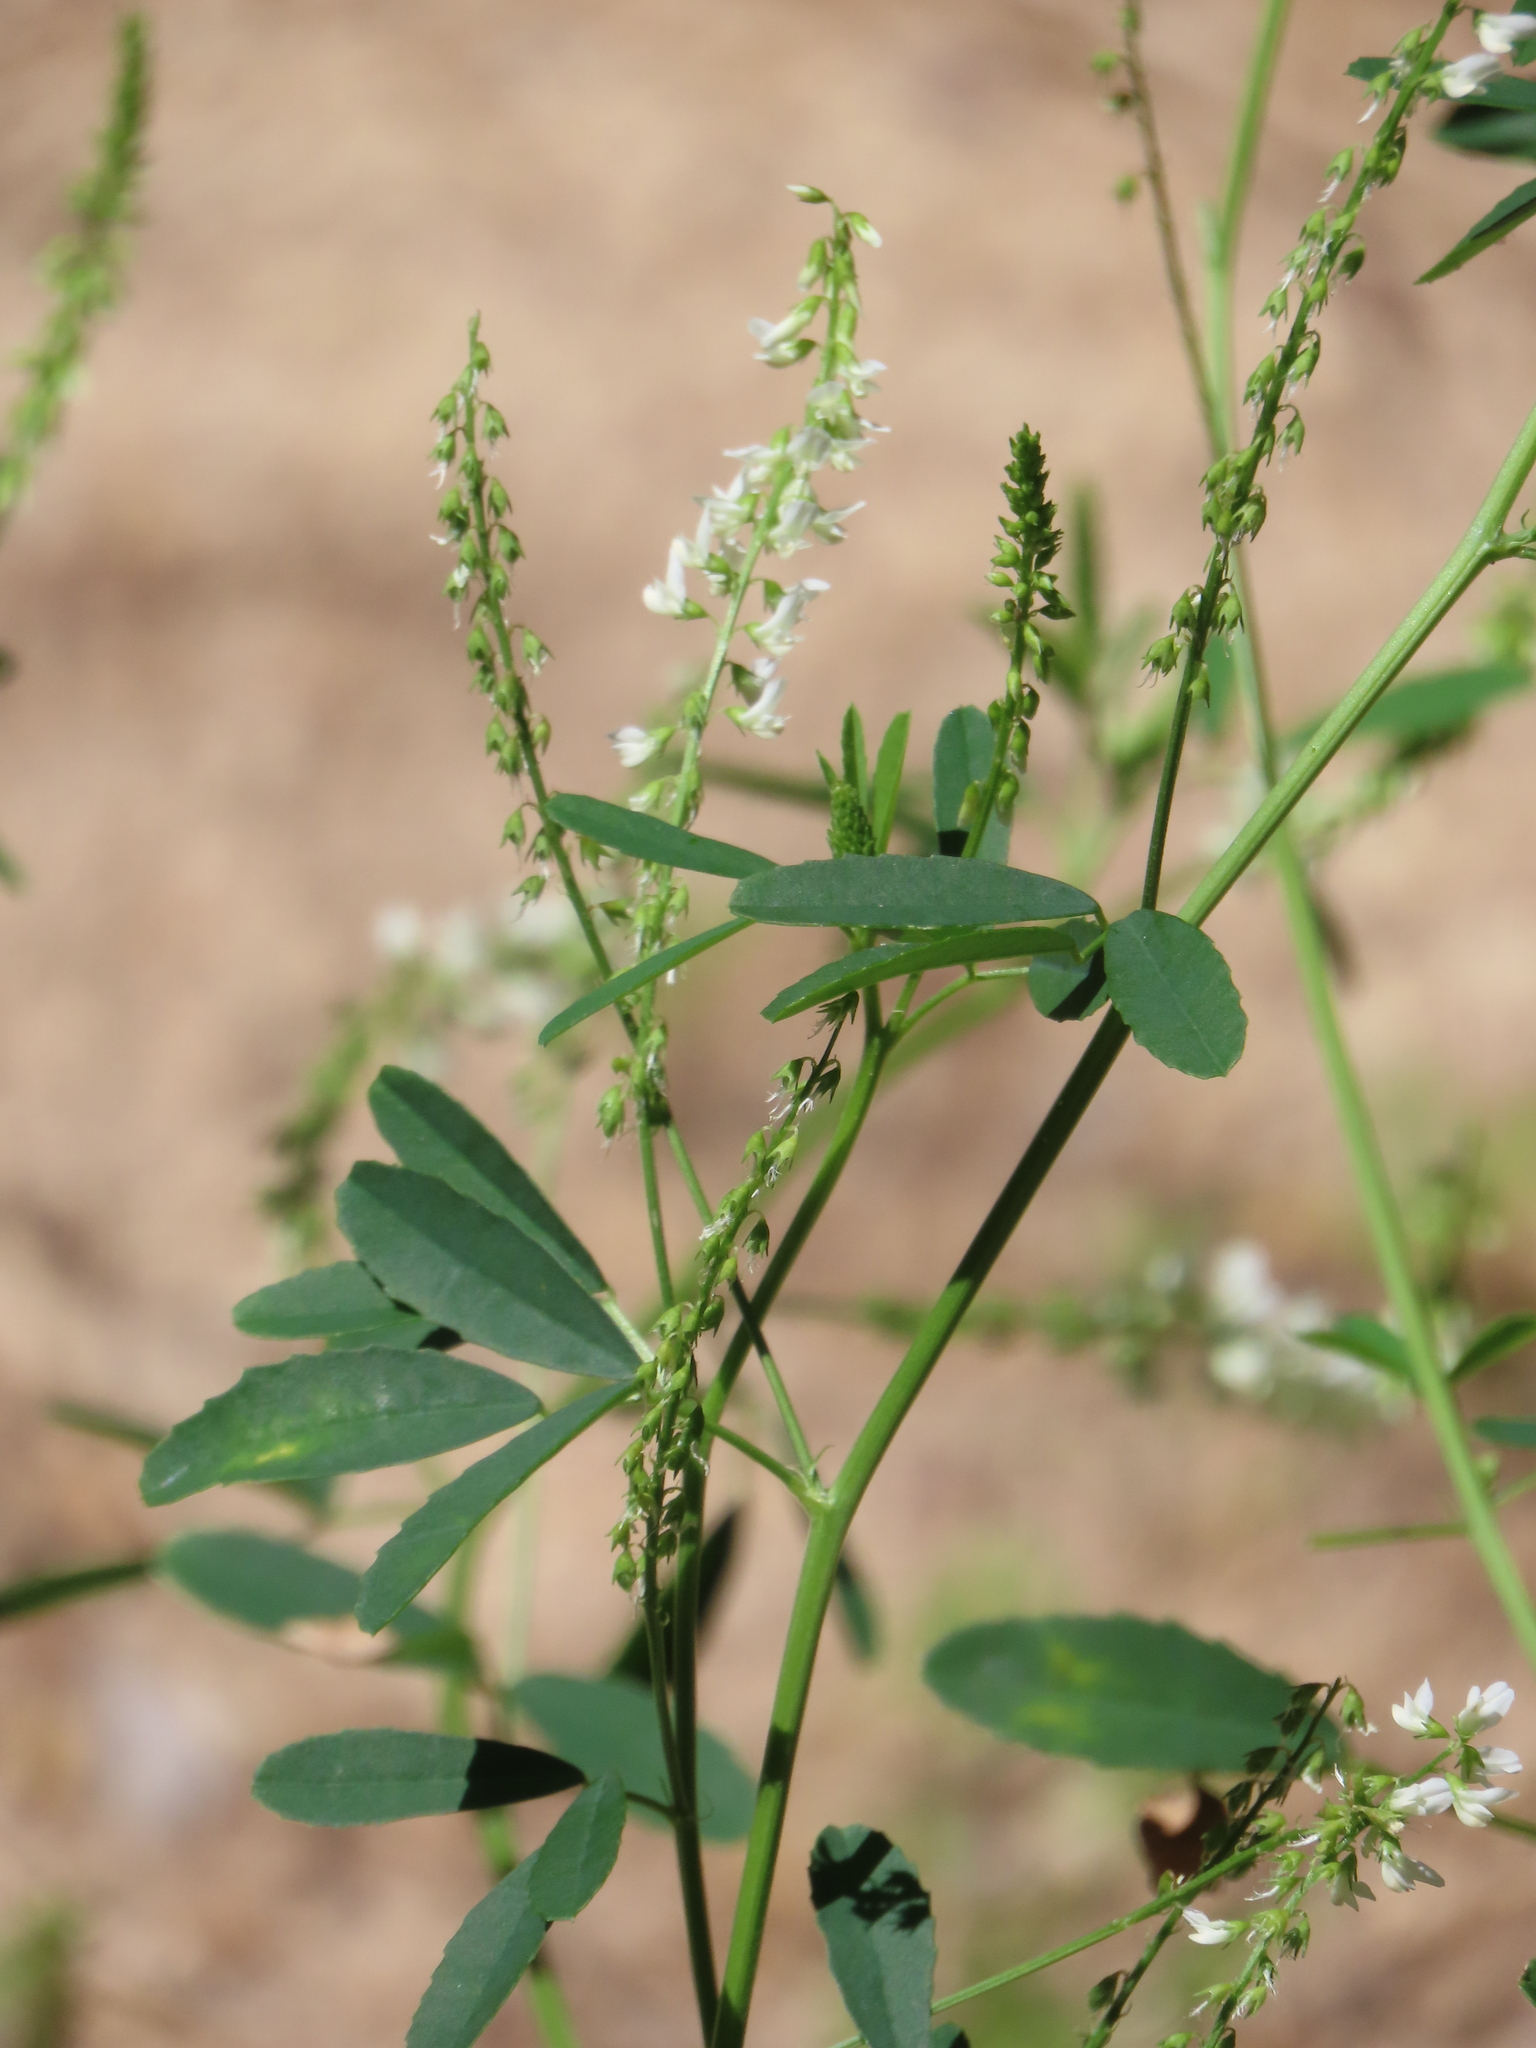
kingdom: Plantae
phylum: Tracheophyta
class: Magnoliopsida
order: Fabales
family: Fabaceae
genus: Melilotus
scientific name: Melilotus albus
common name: White melilot
